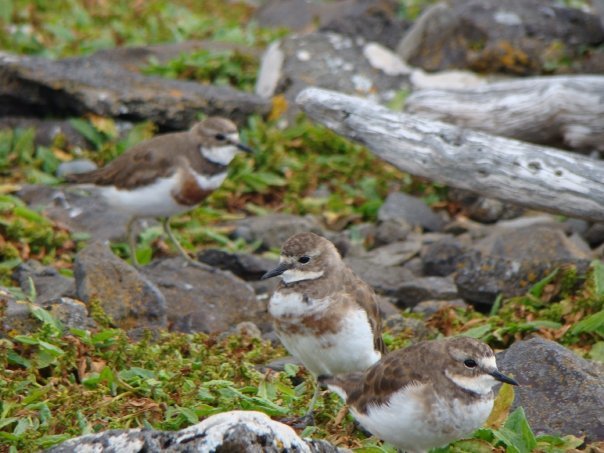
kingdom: Animalia
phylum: Chordata
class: Aves
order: Charadriiformes
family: Charadriidae
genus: Anarhynchus
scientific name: Anarhynchus
